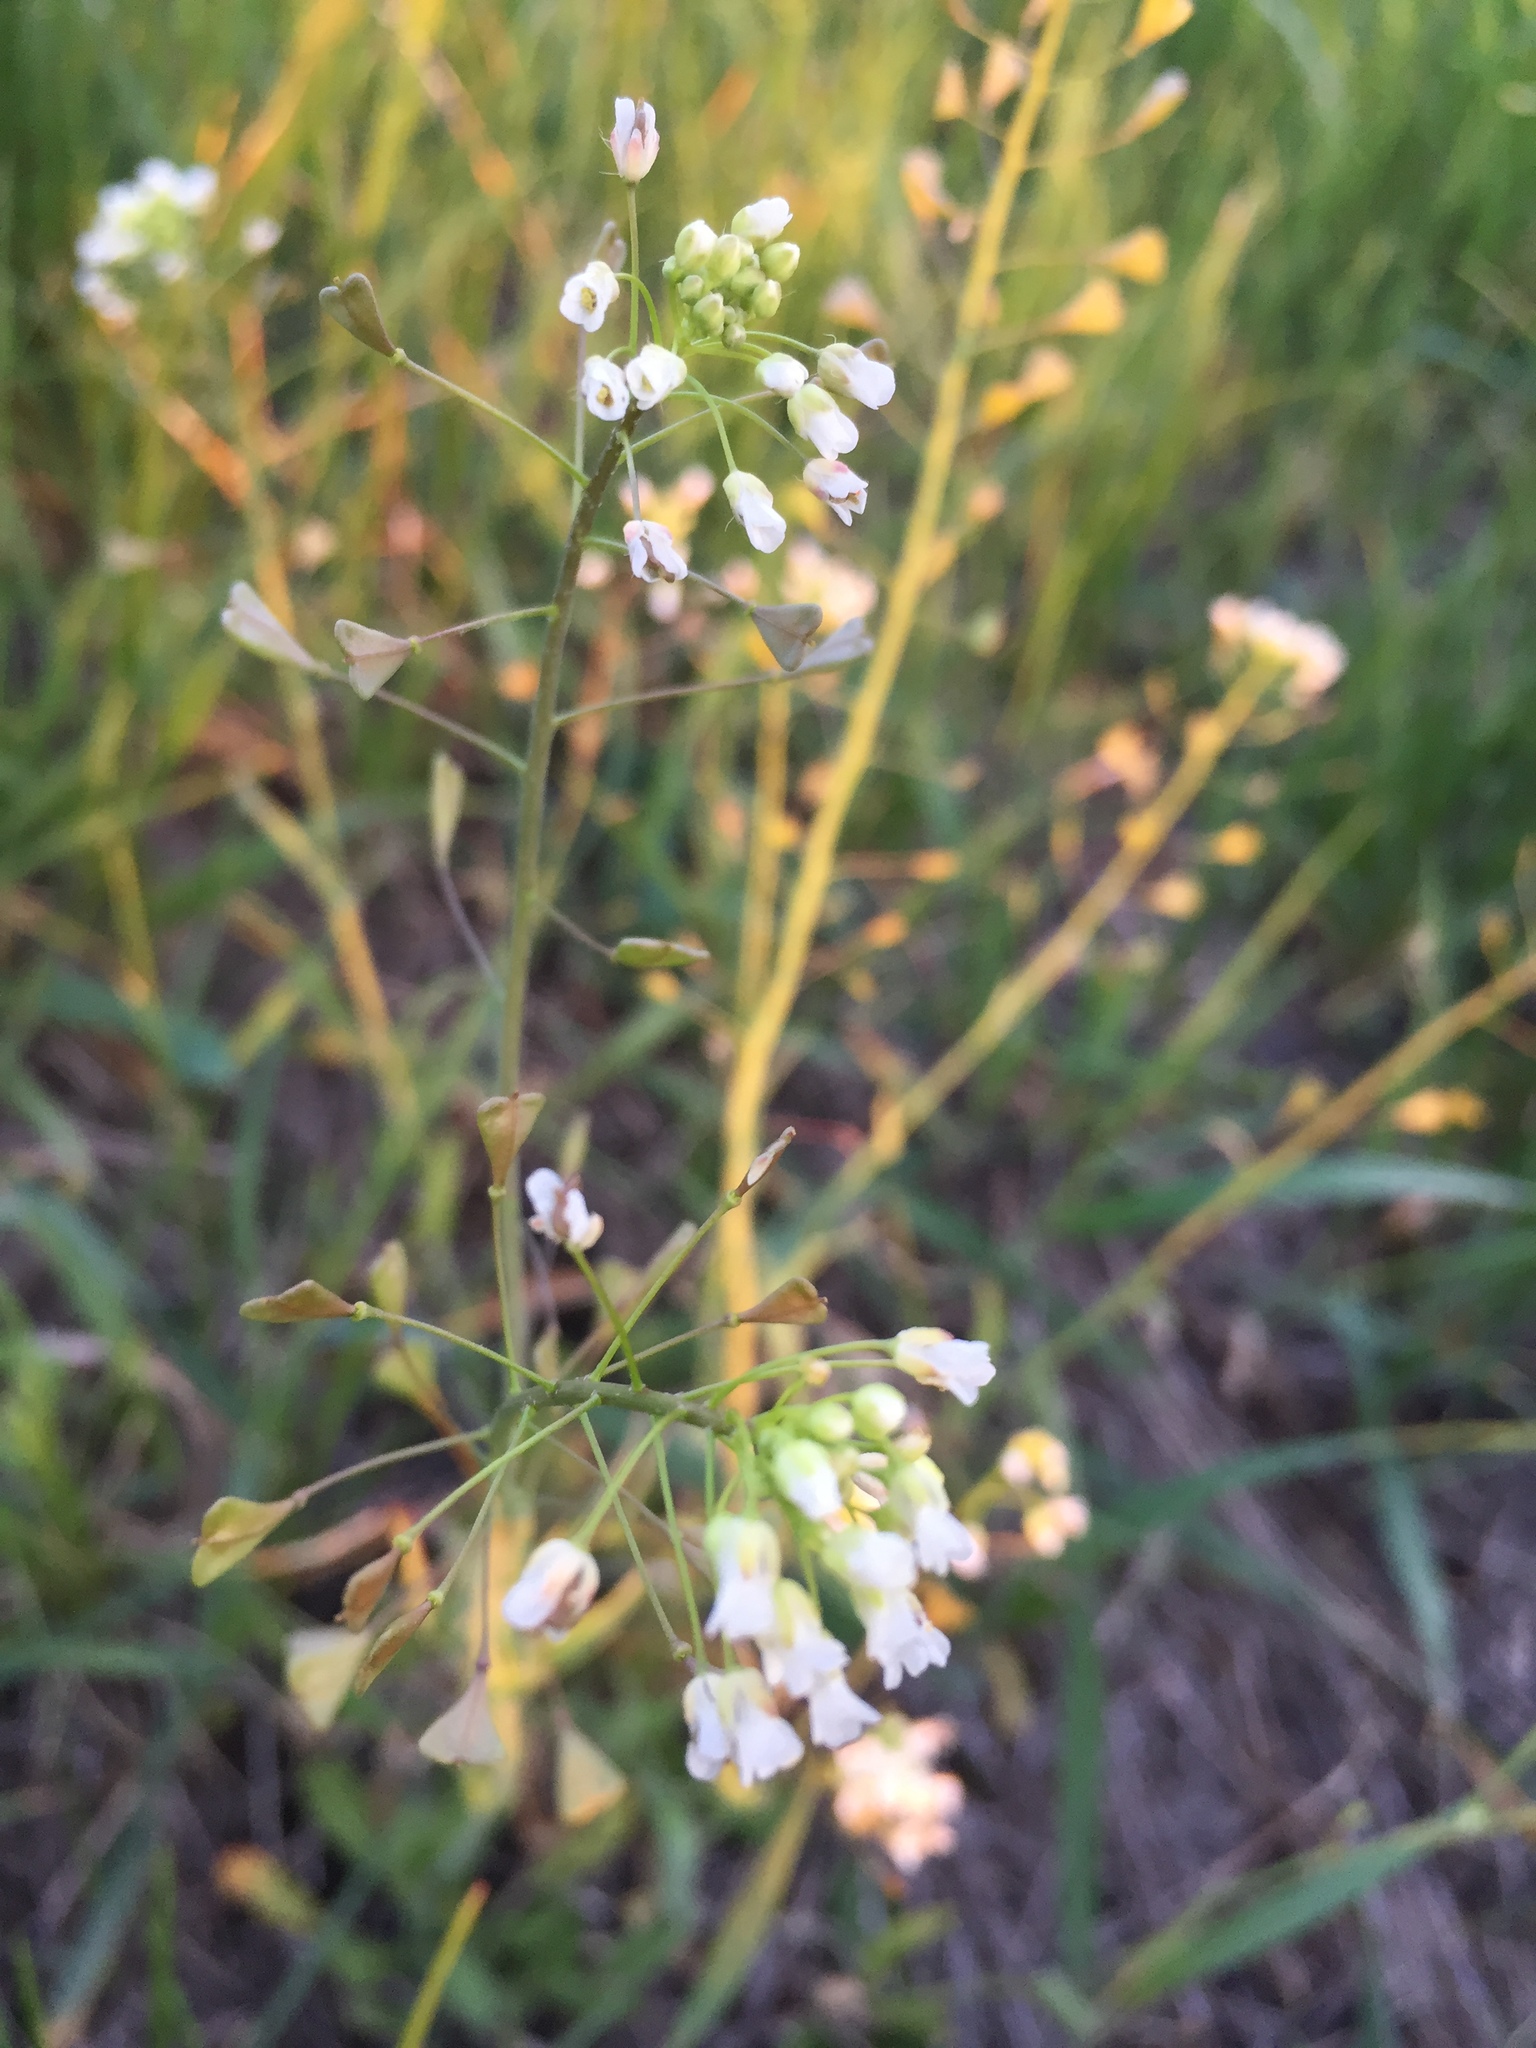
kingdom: Plantae
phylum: Tracheophyta
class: Magnoliopsida
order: Brassicales
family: Brassicaceae
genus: Capsella
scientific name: Capsella bursa-pastoris
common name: Shepherd's purse
